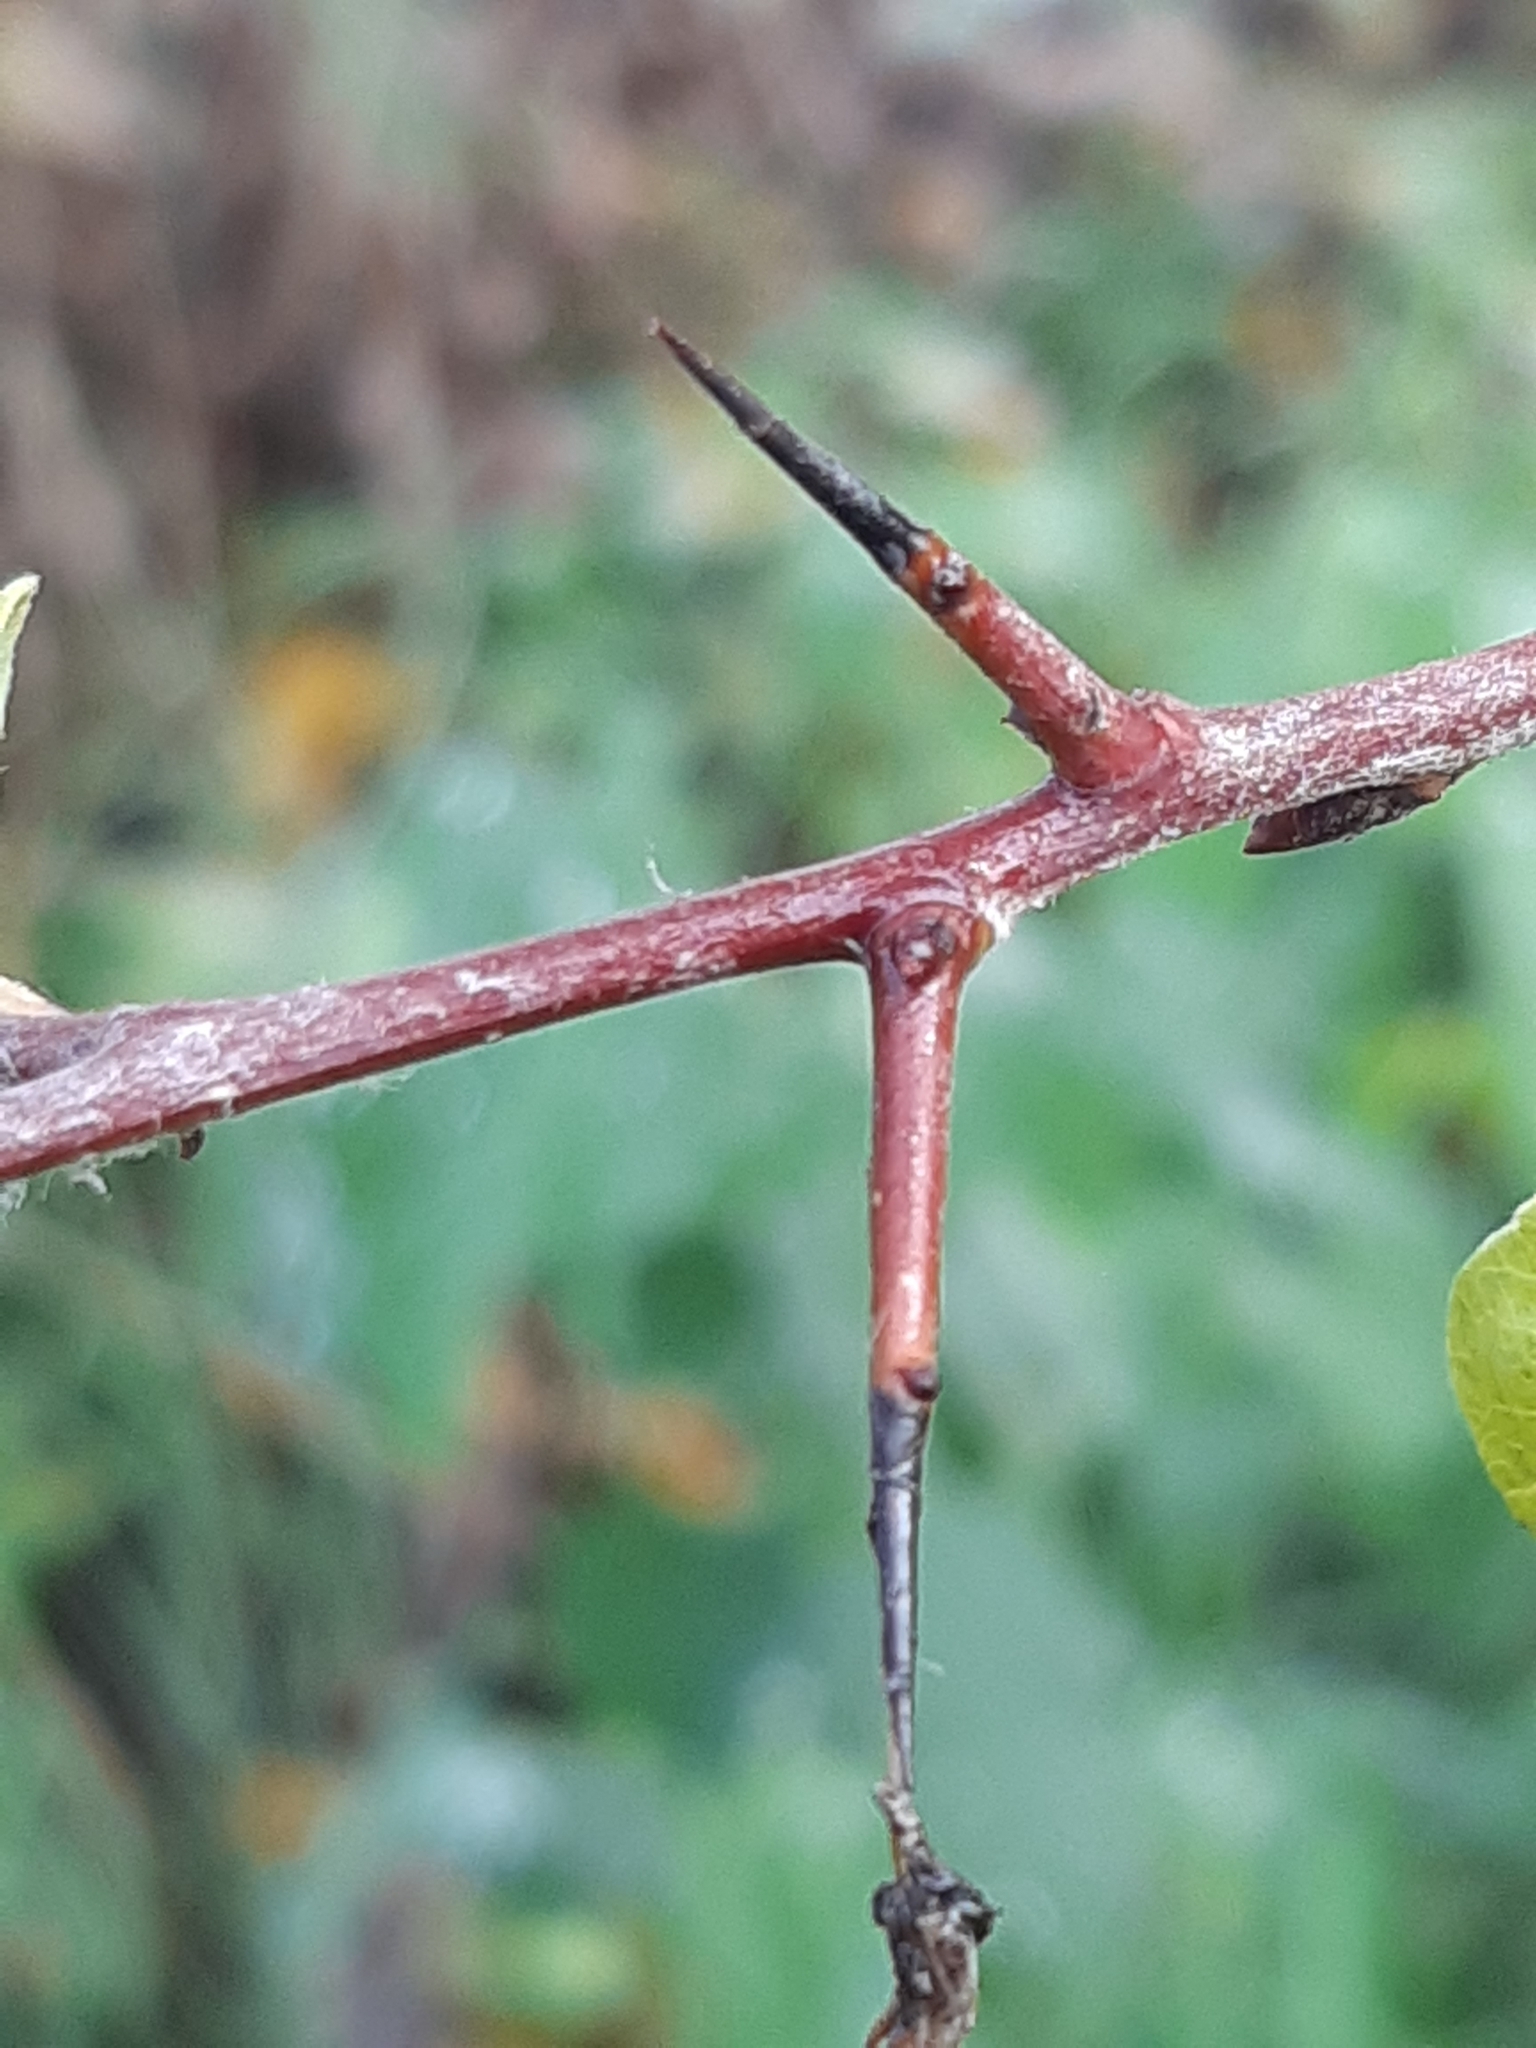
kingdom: Plantae
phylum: Tracheophyta
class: Magnoliopsida
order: Rosales
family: Rosaceae
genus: Pyrus
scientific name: Pyrus
